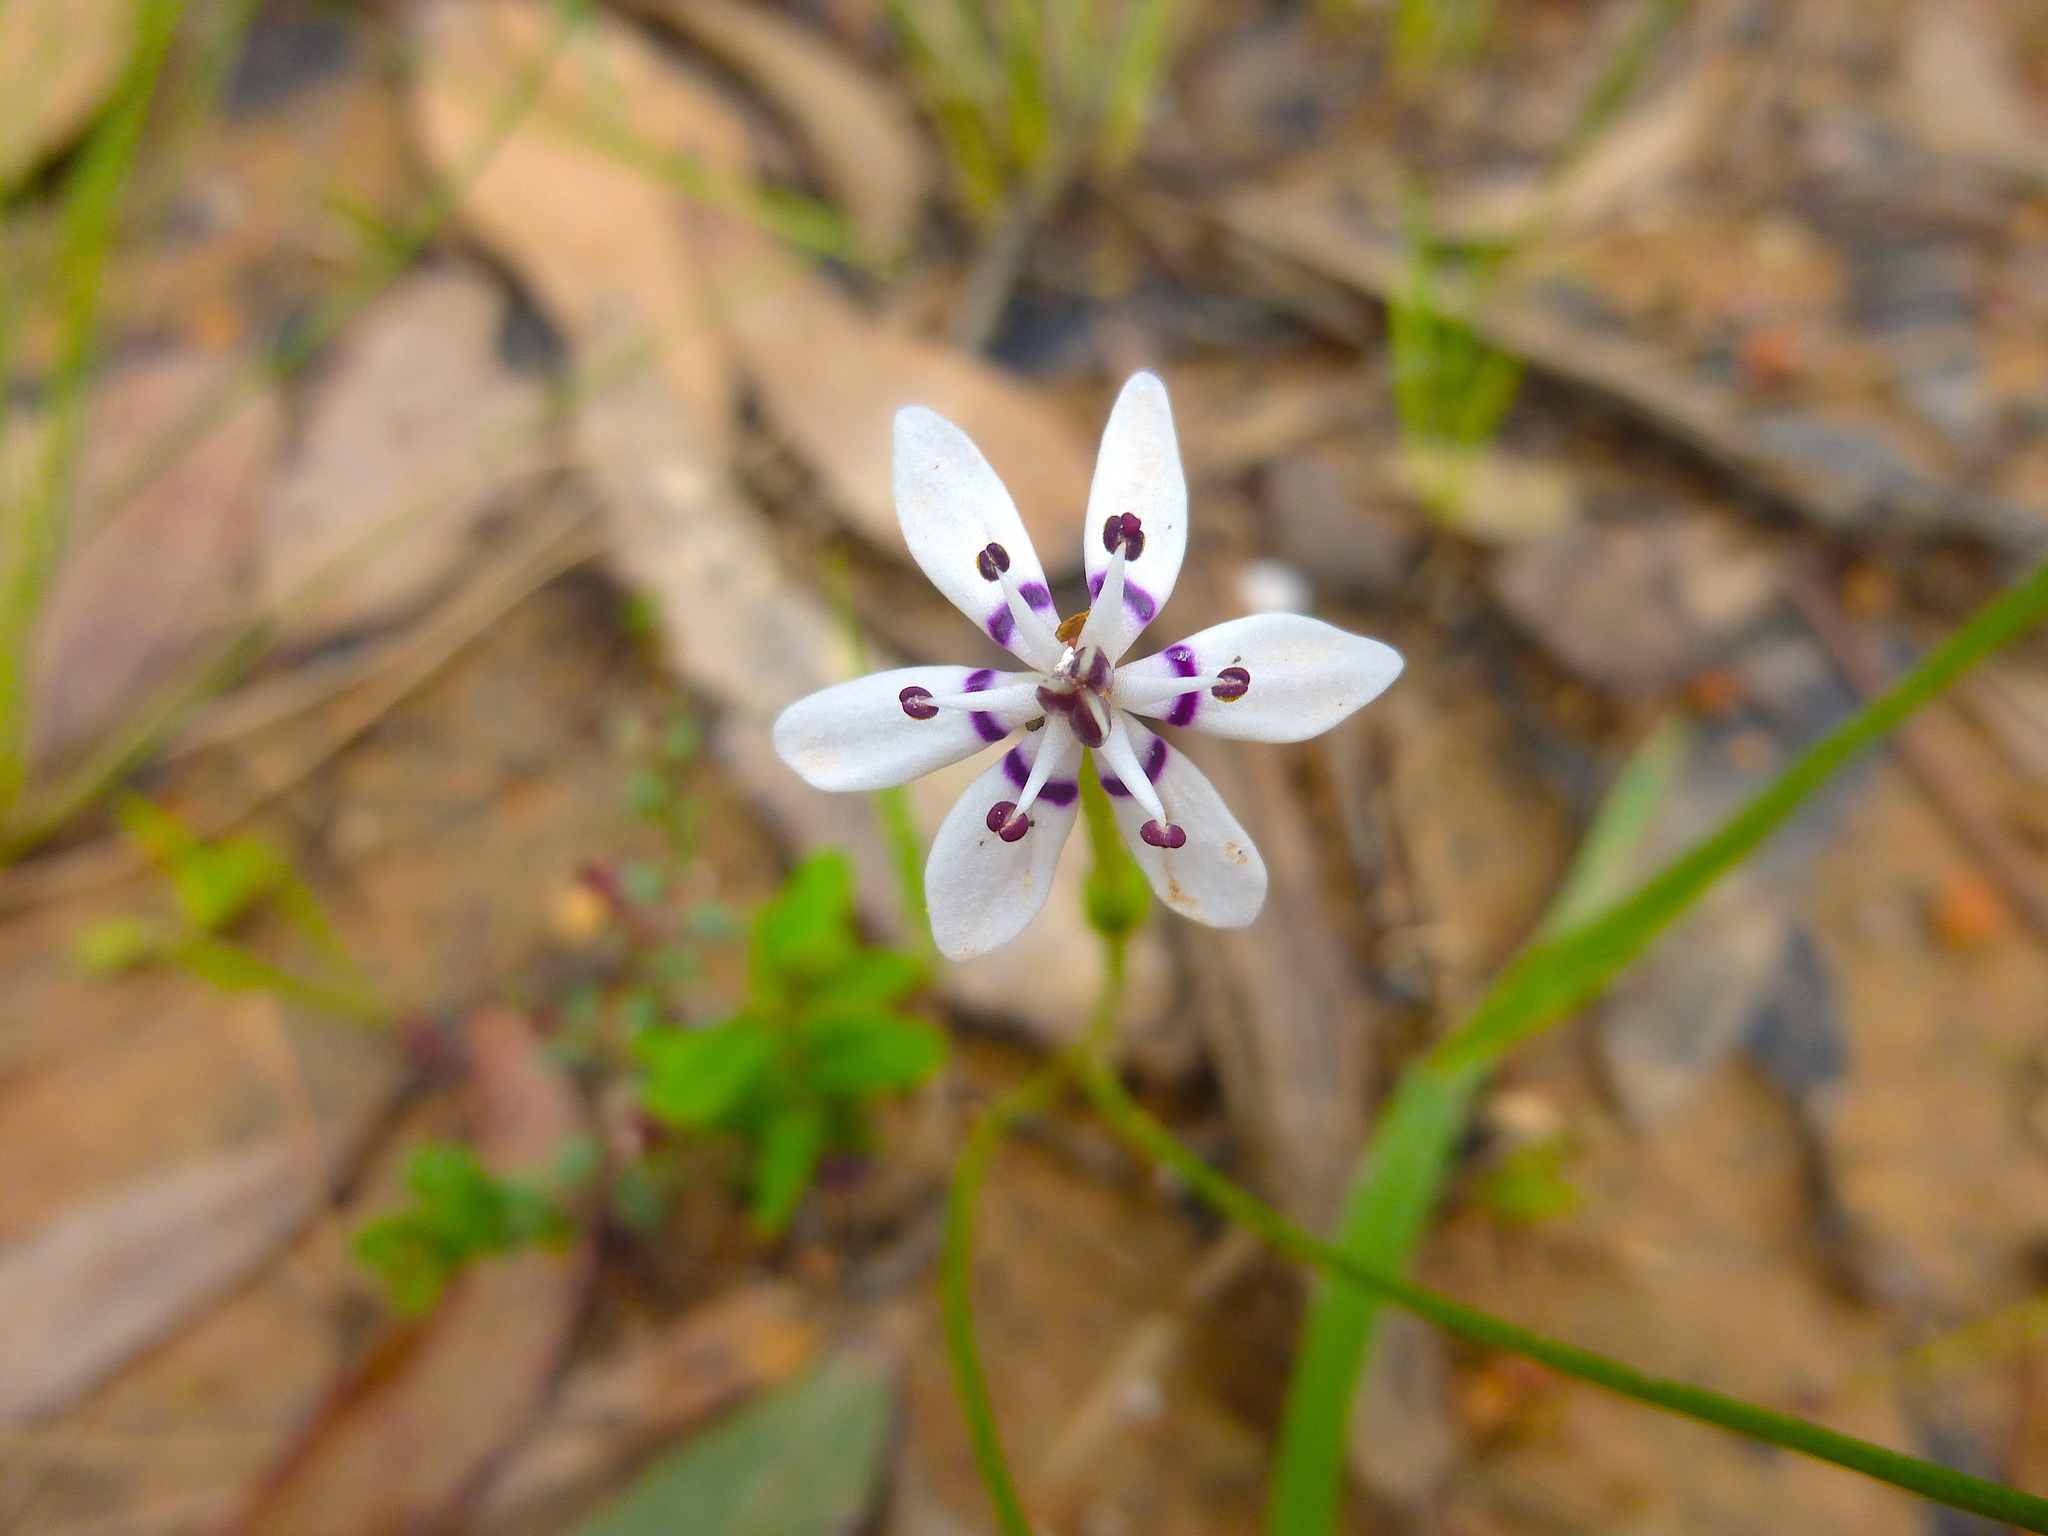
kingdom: Plantae
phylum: Tracheophyta
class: Liliopsida
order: Liliales
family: Colchicaceae
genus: Wurmbea
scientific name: Wurmbea dioica
